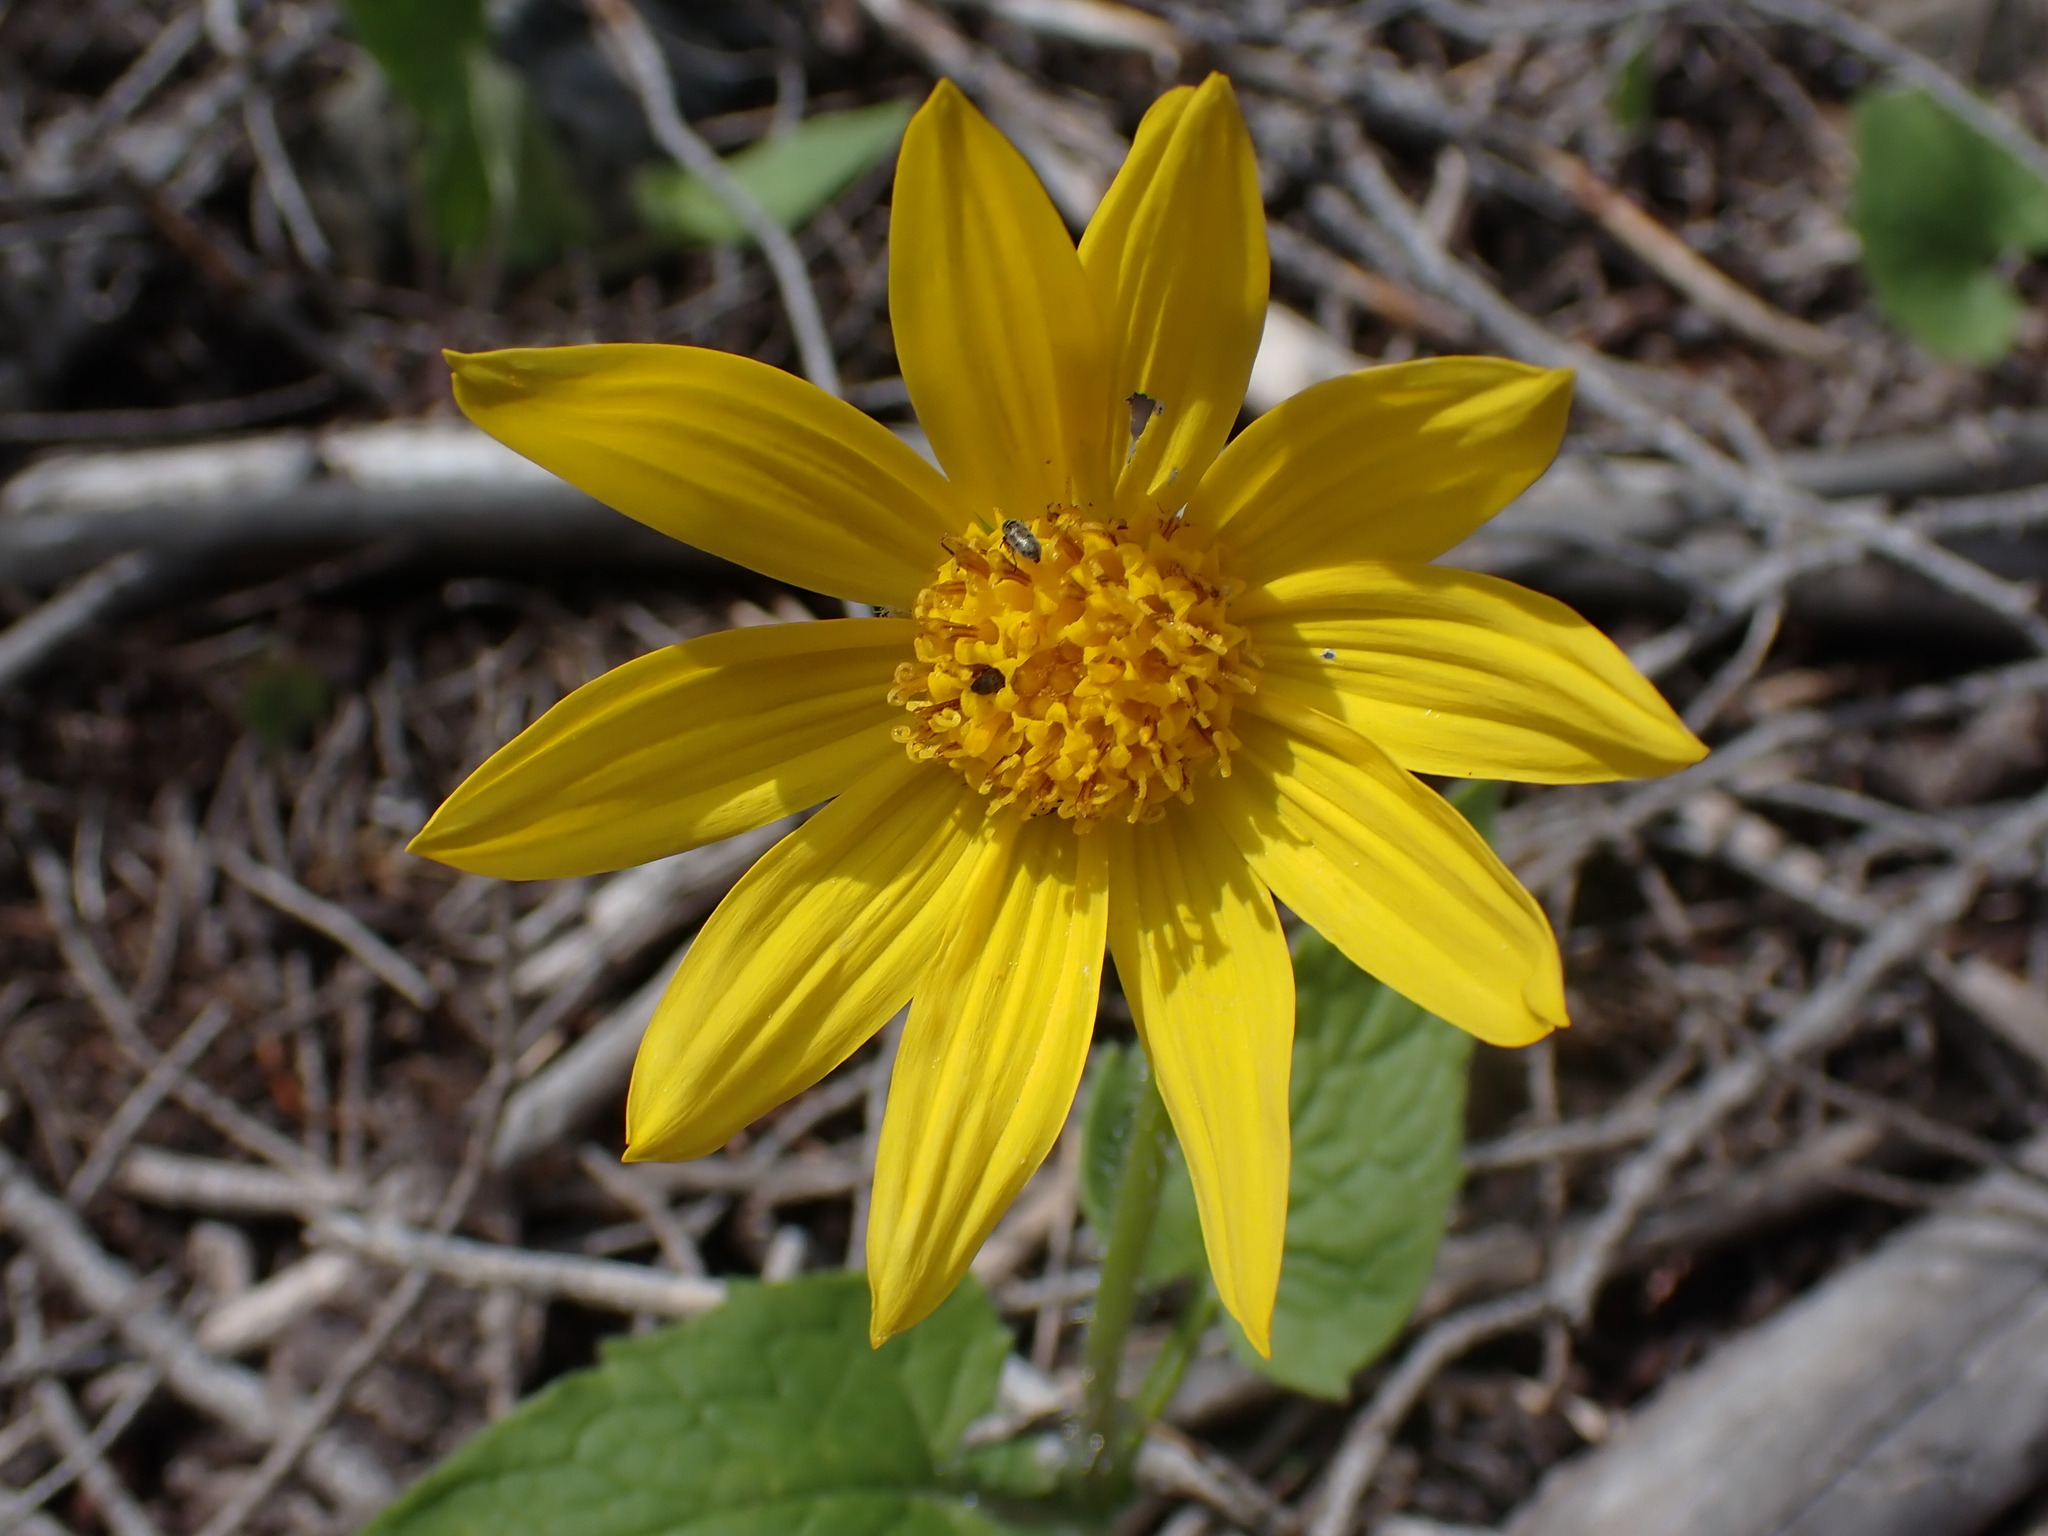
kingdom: Plantae
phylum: Tracheophyta
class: Magnoliopsida
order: Asterales
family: Asteraceae
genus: Arnica
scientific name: Arnica cordifolia
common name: Heart-leaf arnica
